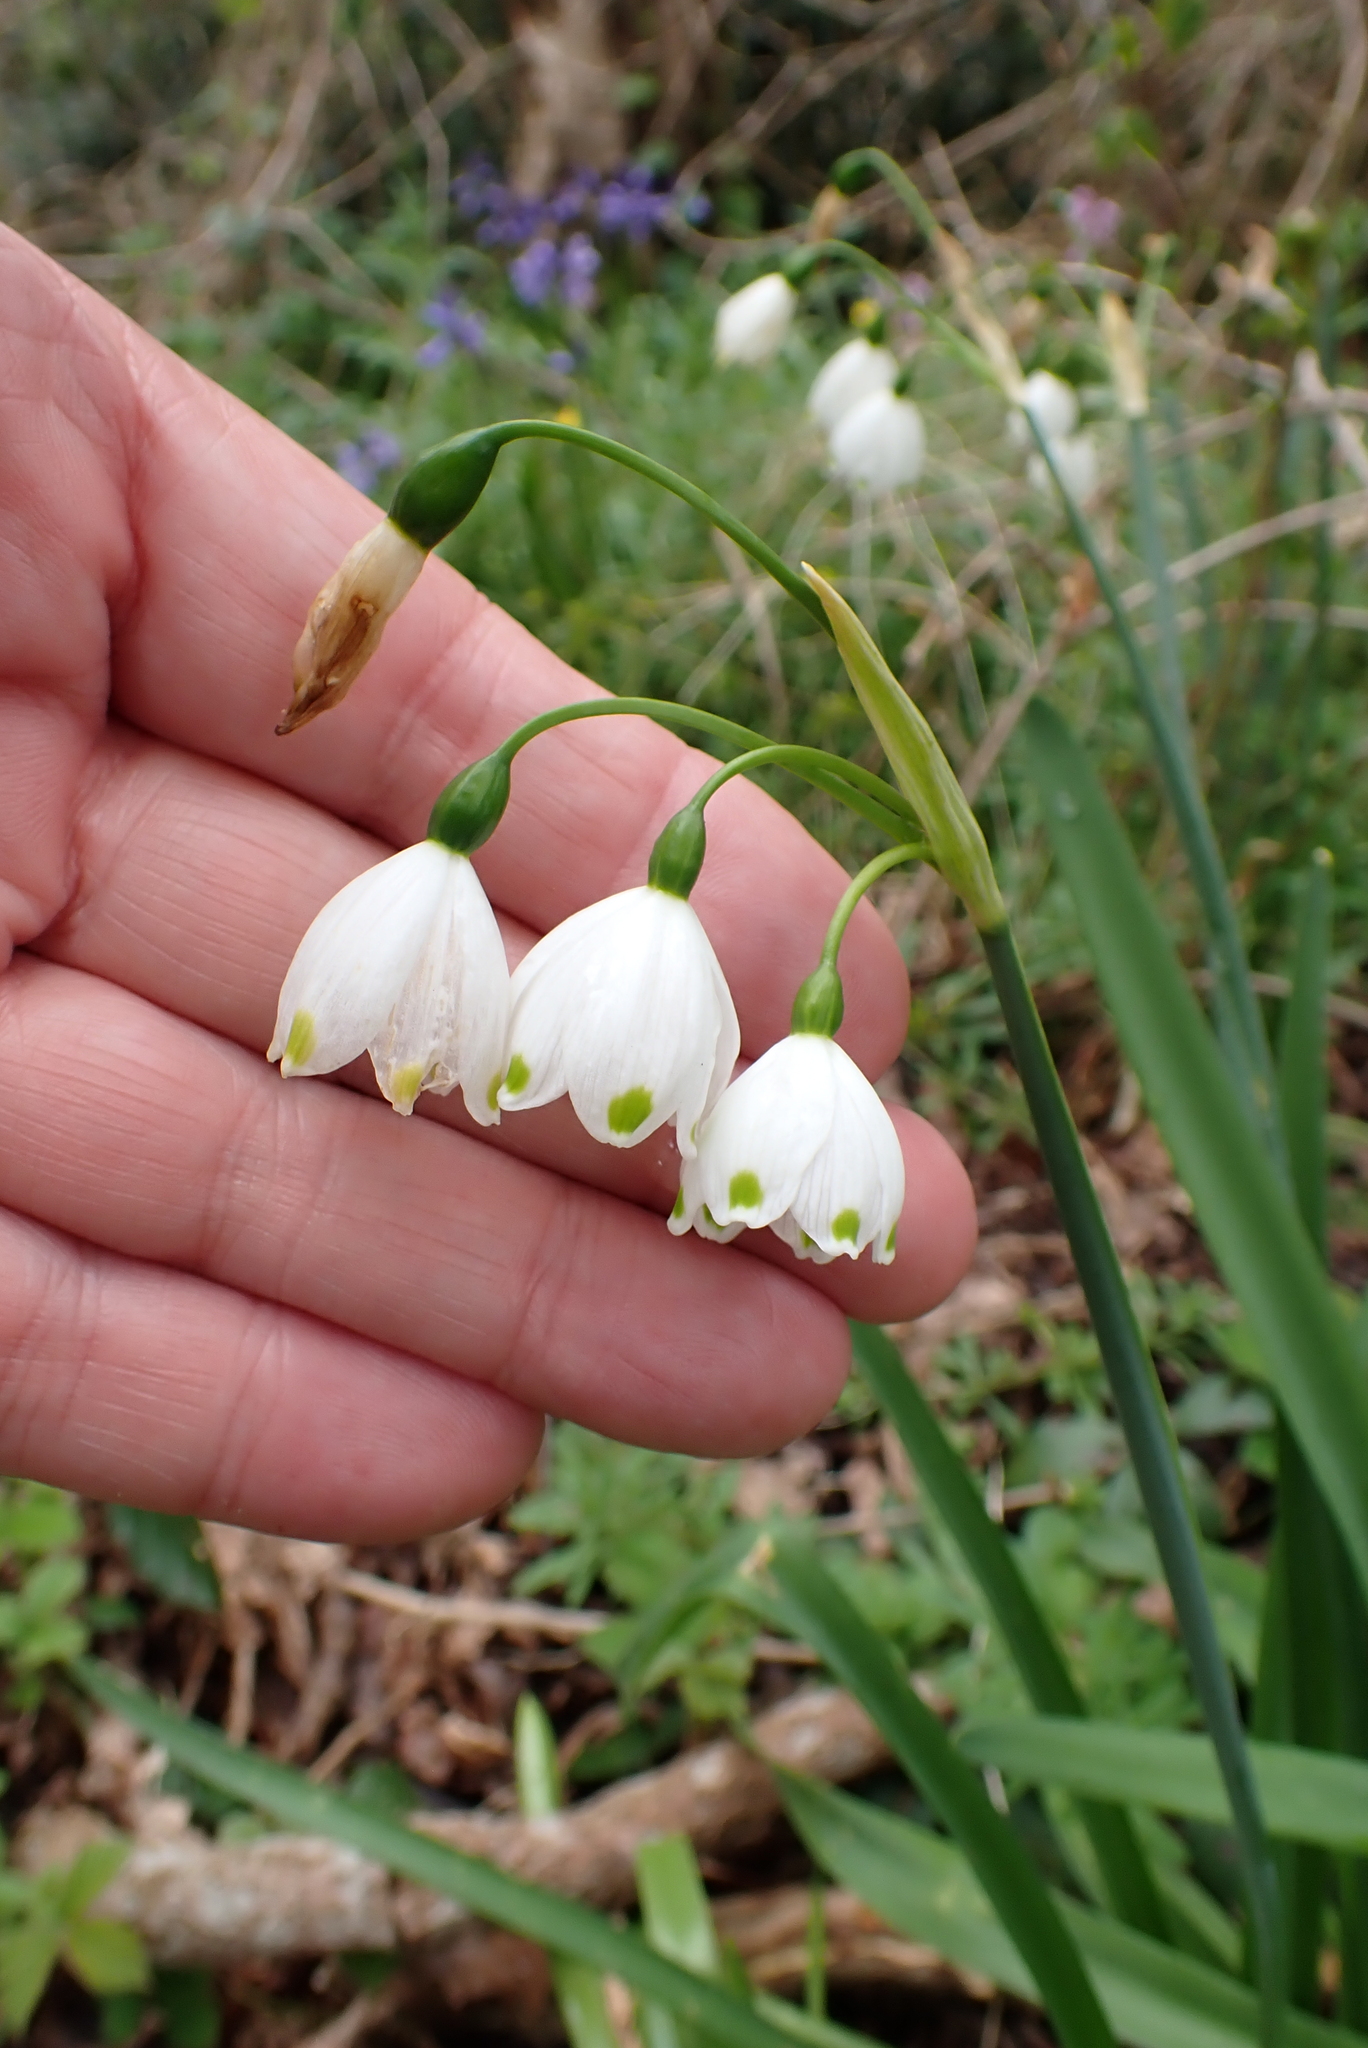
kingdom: Plantae
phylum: Tracheophyta
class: Liliopsida
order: Asparagales
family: Amaryllidaceae
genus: Leucojum
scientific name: Leucojum aestivum
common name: Summer snowflake
